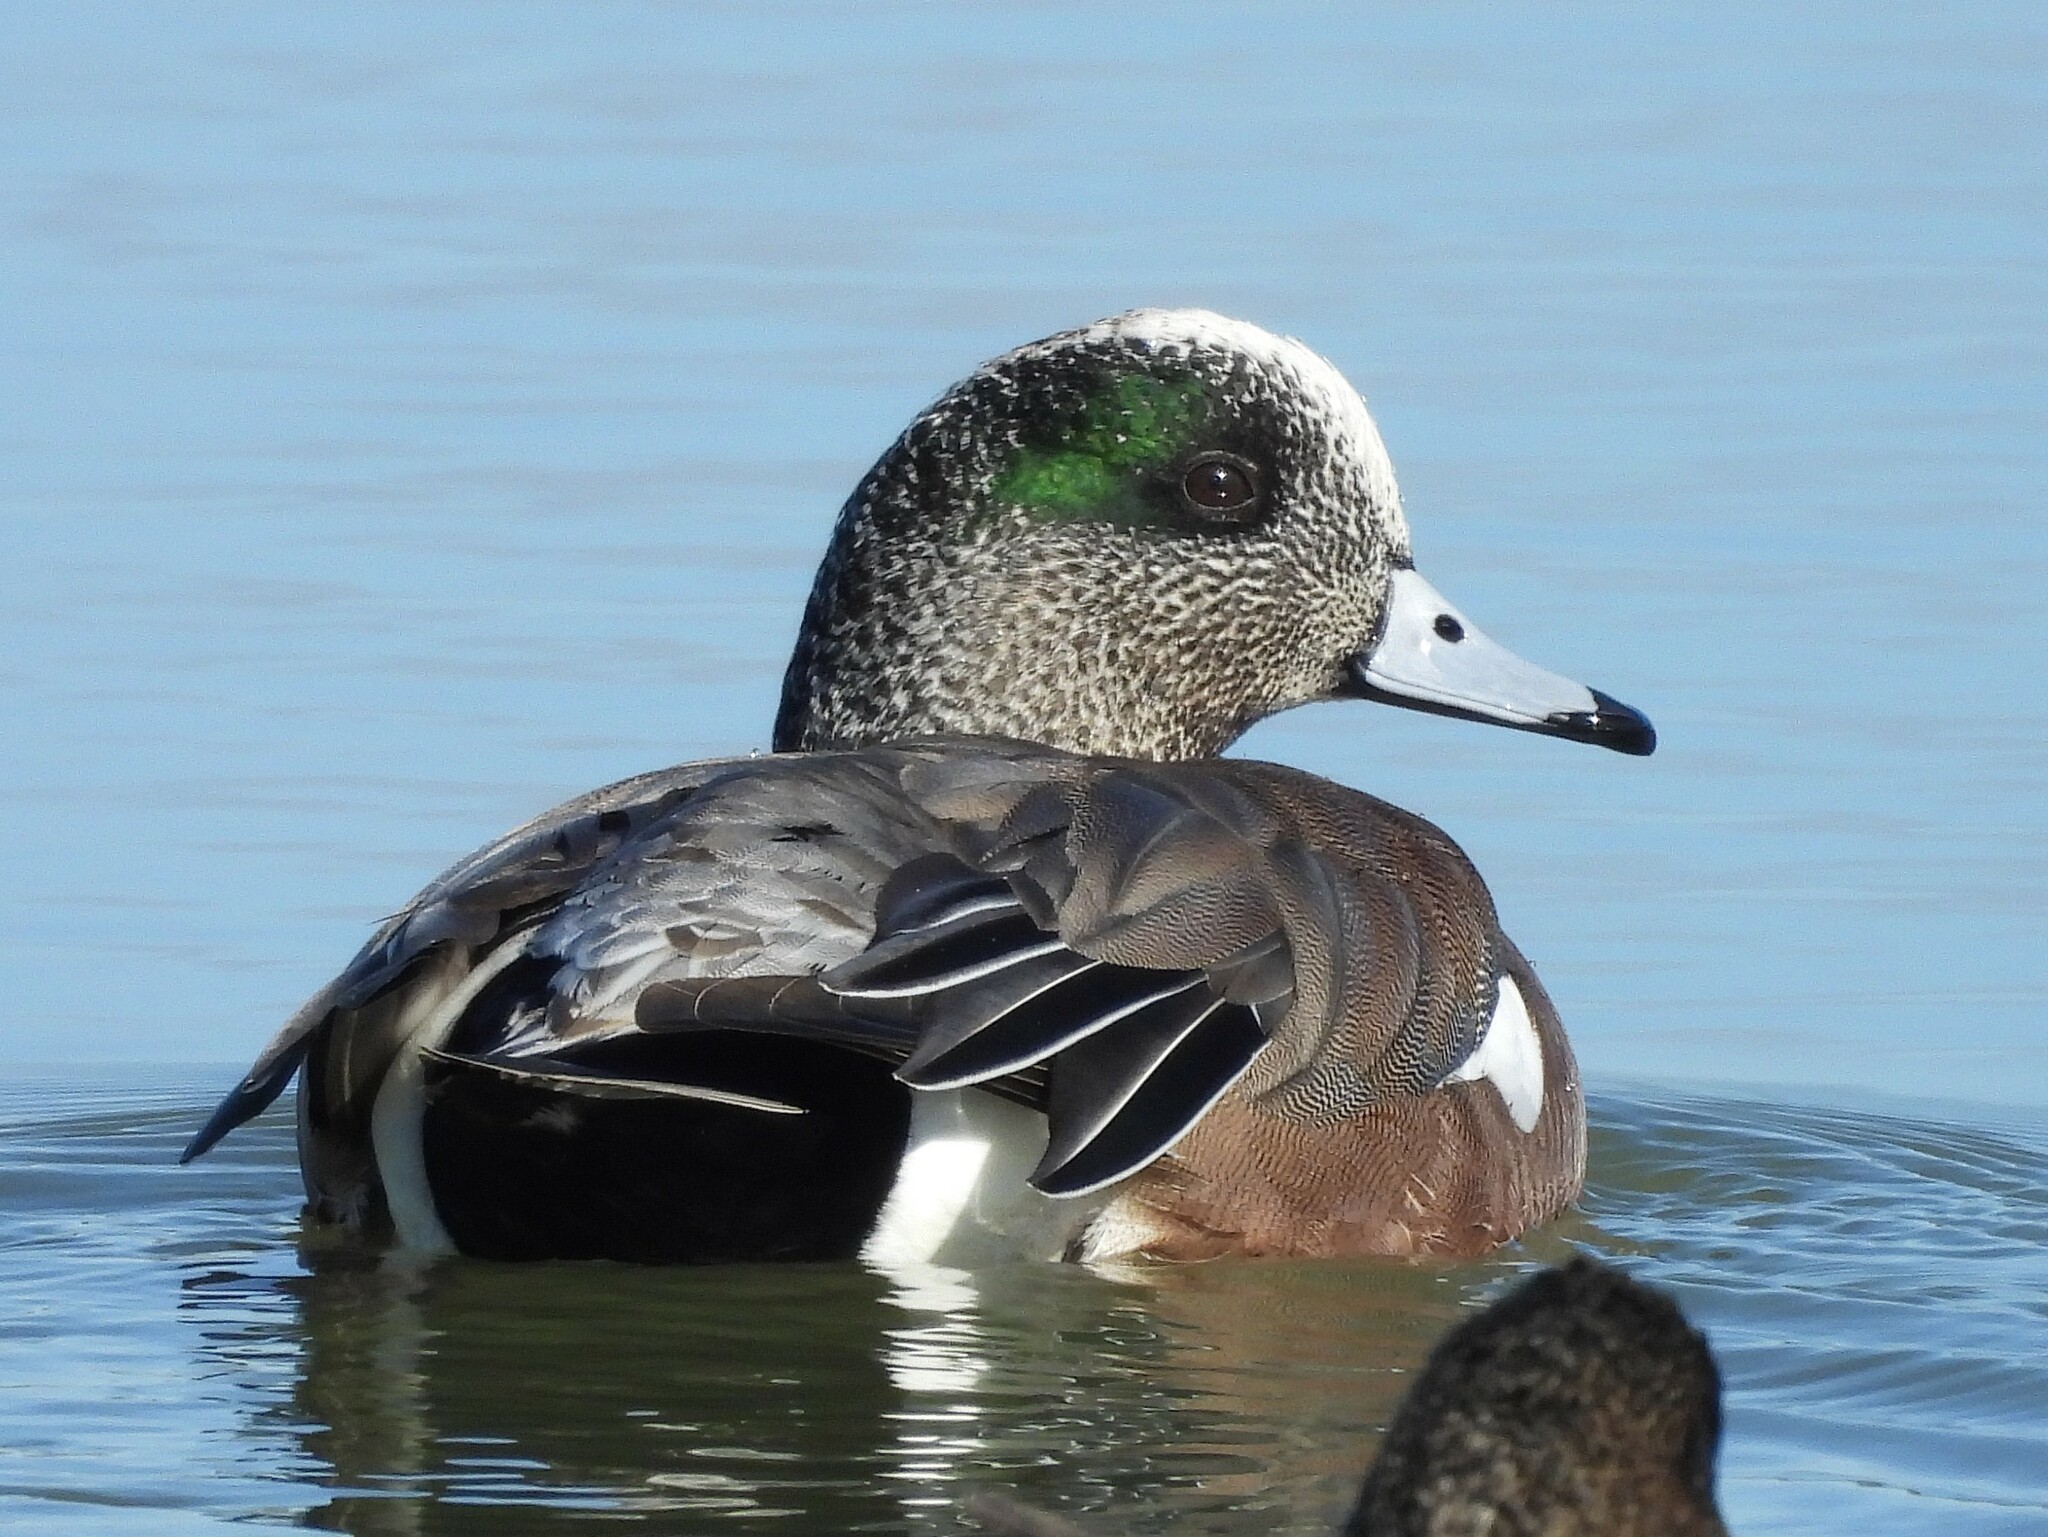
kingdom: Animalia
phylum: Chordata
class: Aves
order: Anseriformes
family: Anatidae
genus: Mareca
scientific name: Mareca americana
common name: American wigeon
